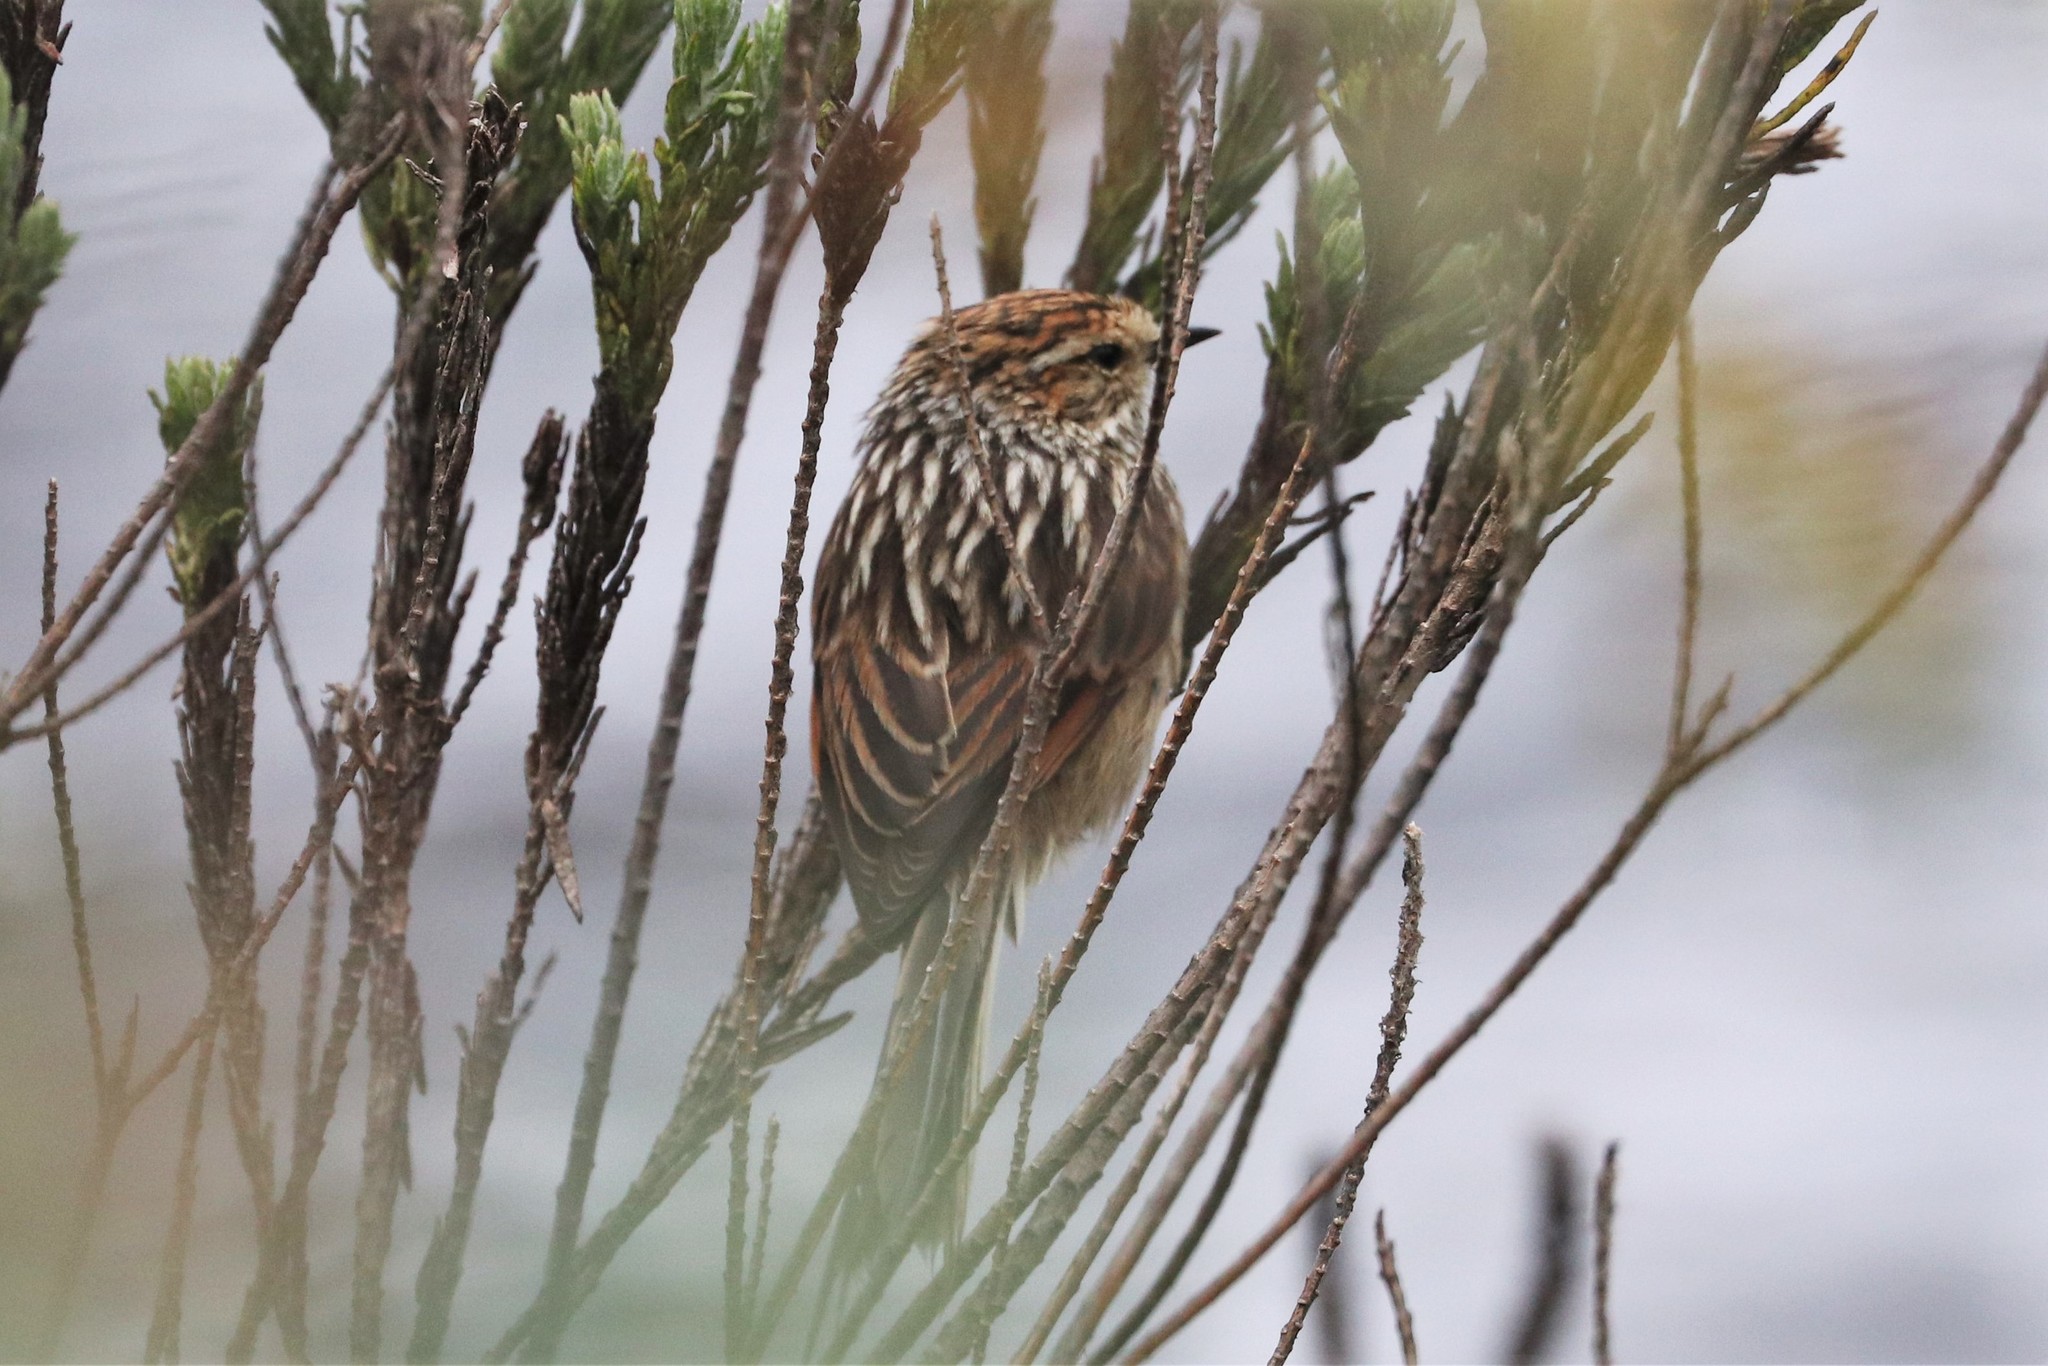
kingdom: Animalia
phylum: Chordata
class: Aves
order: Passeriformes
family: Furnariidae
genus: Asthenes
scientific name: Asthenes flammulata
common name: Many-striped canastero
